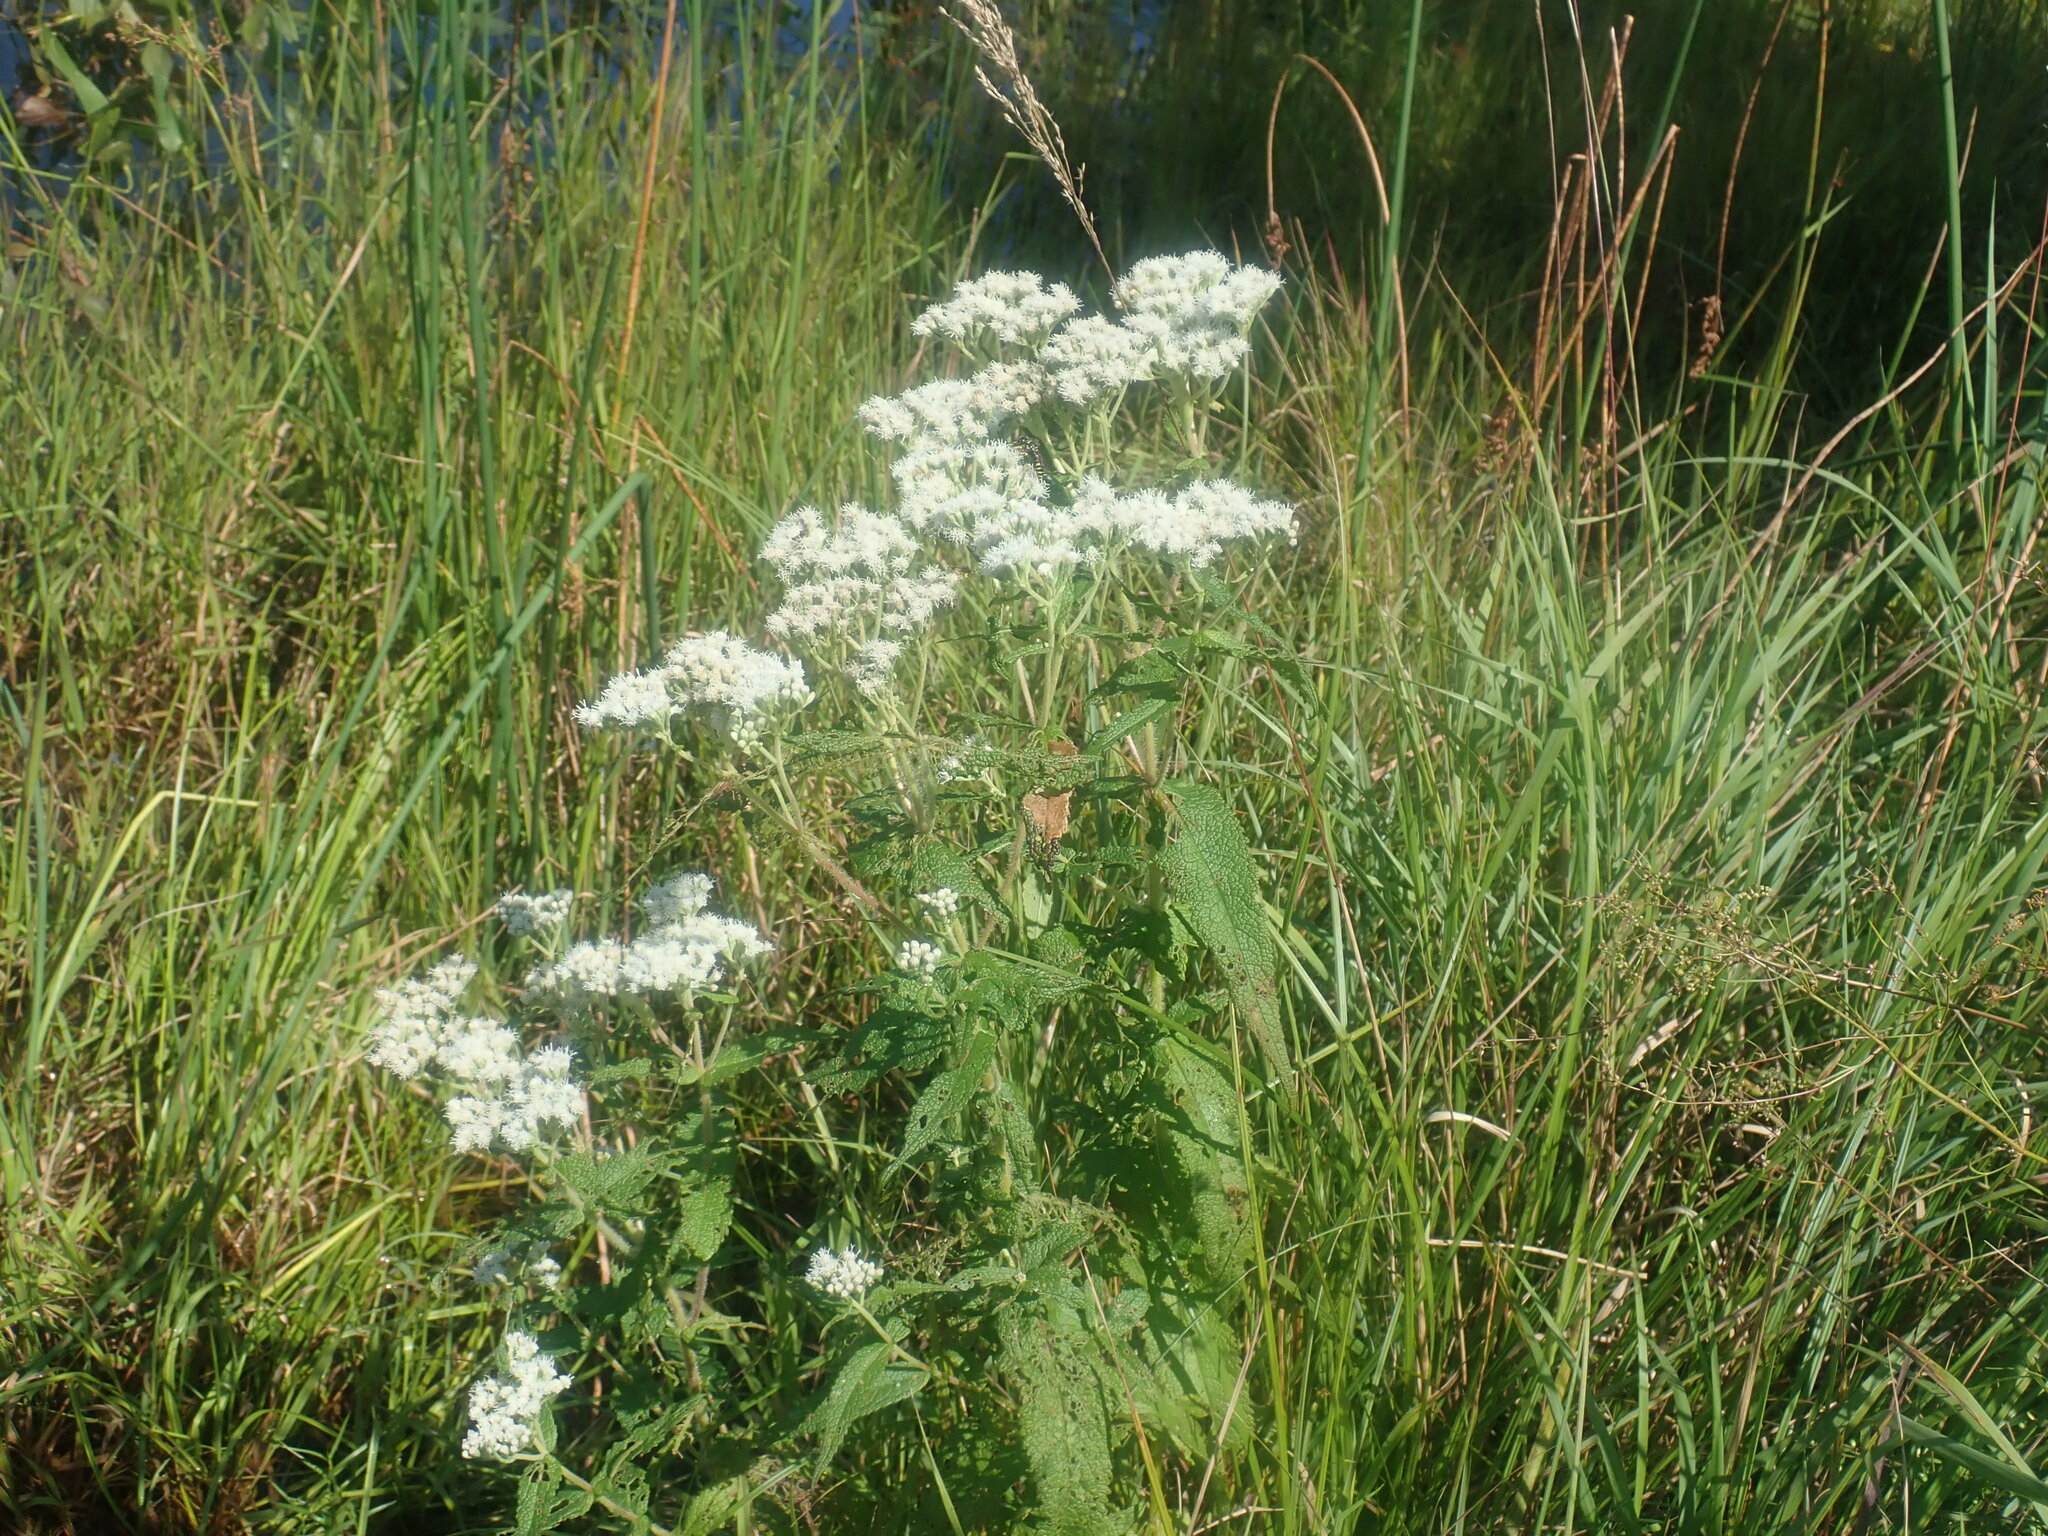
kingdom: Plantae
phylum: Tracheophyta
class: Magnoliopsida
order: Asterales
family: Asteraceae
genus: Eupatorium
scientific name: Eupatorium perfoliatum
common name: Boneset
